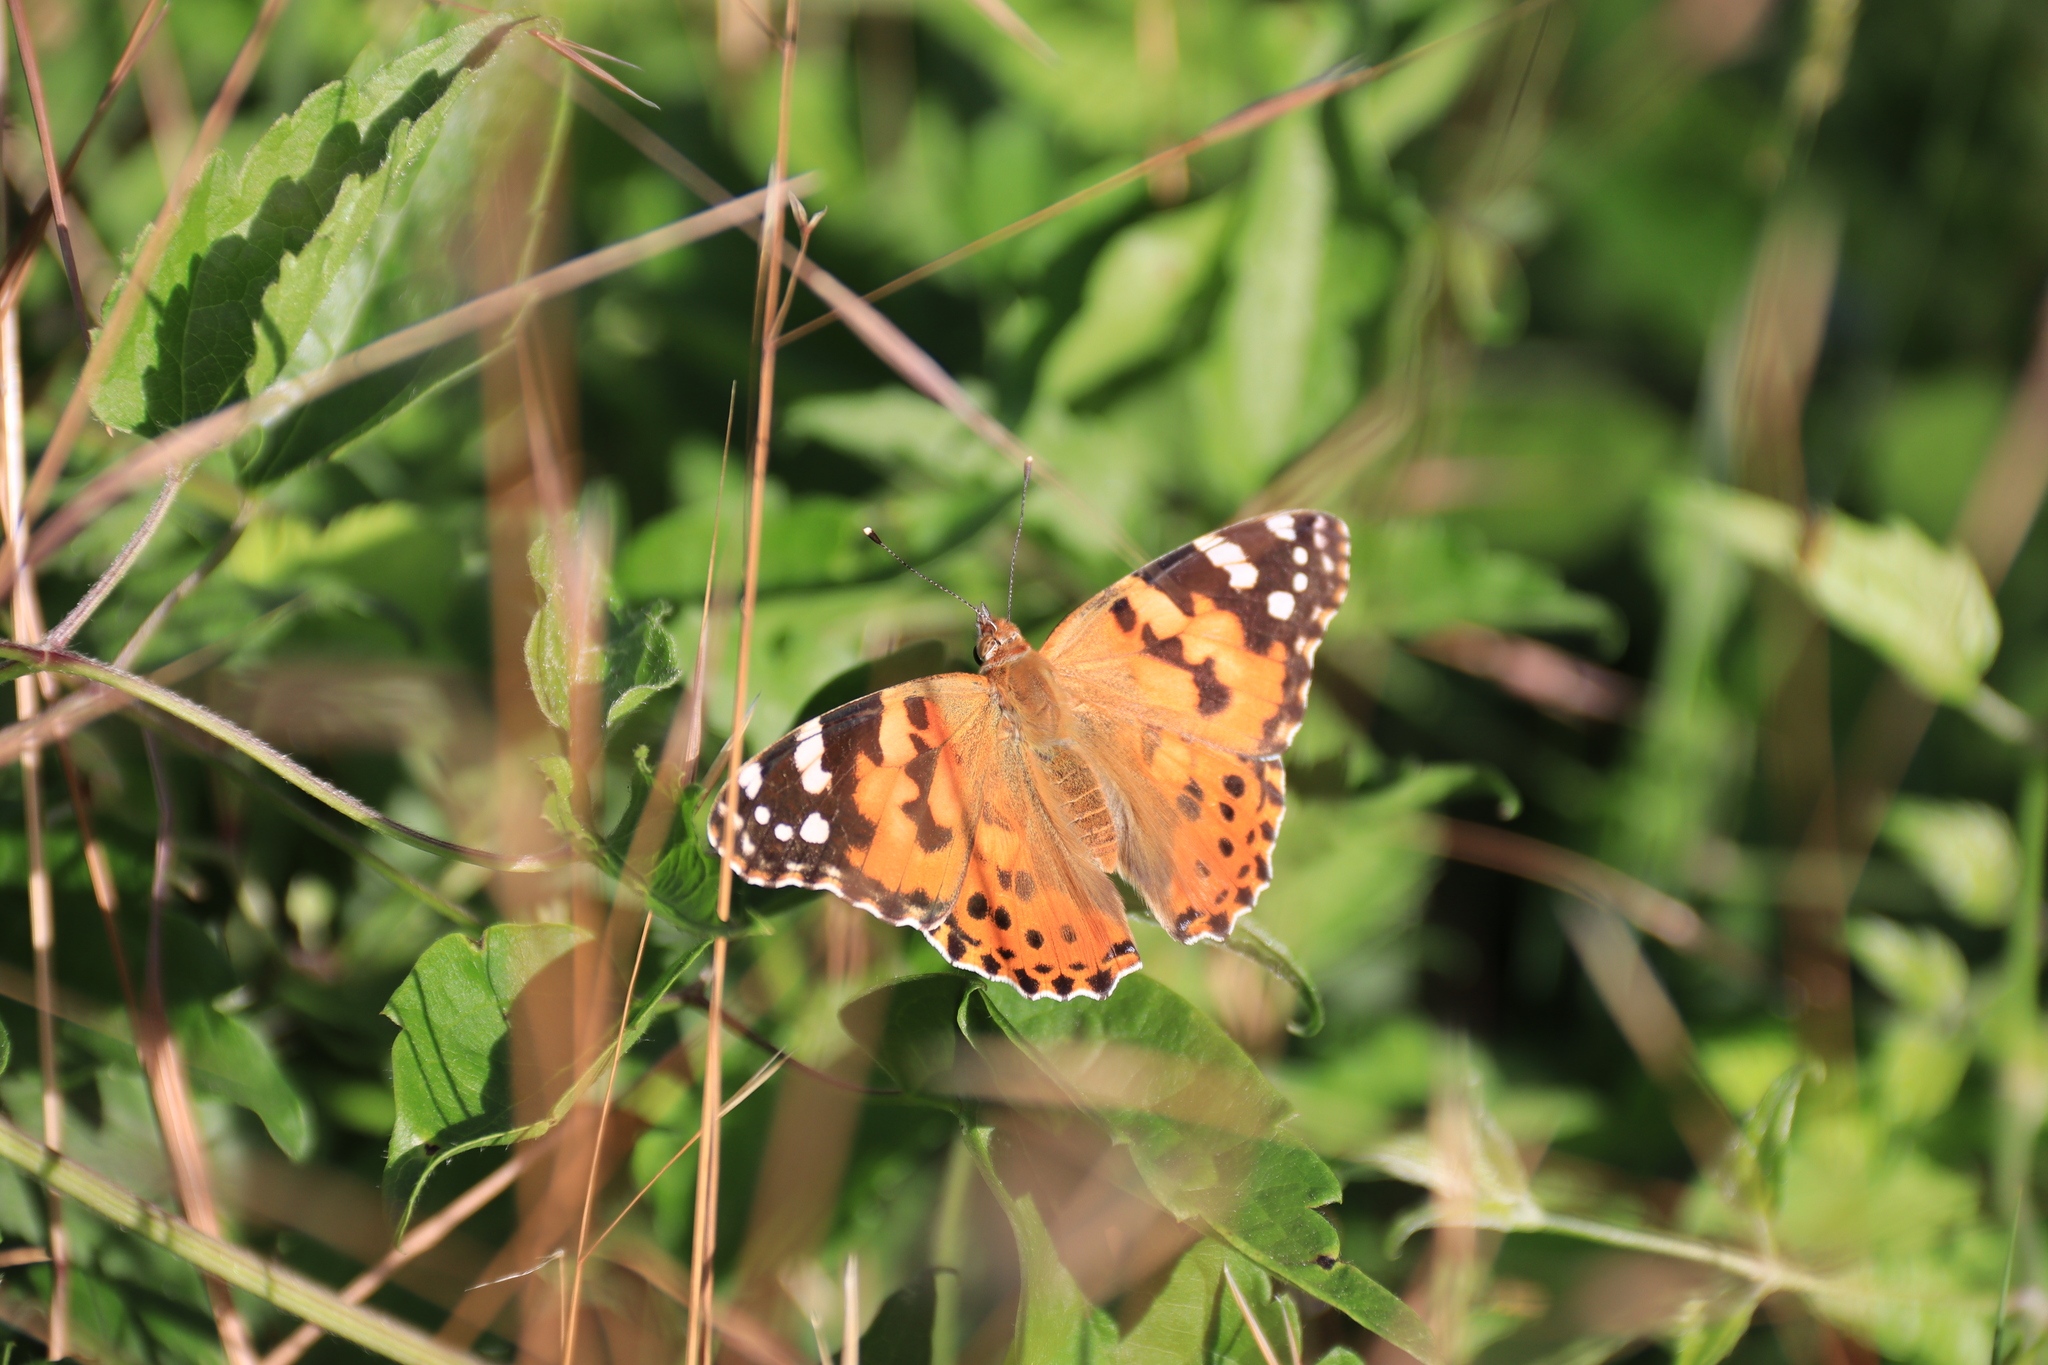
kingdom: Animalia
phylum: Arthropoda
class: Insecta
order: Lepidoptera
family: Nymphalidae
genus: Vanessa
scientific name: Vanessa cardui
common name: Painted lady
